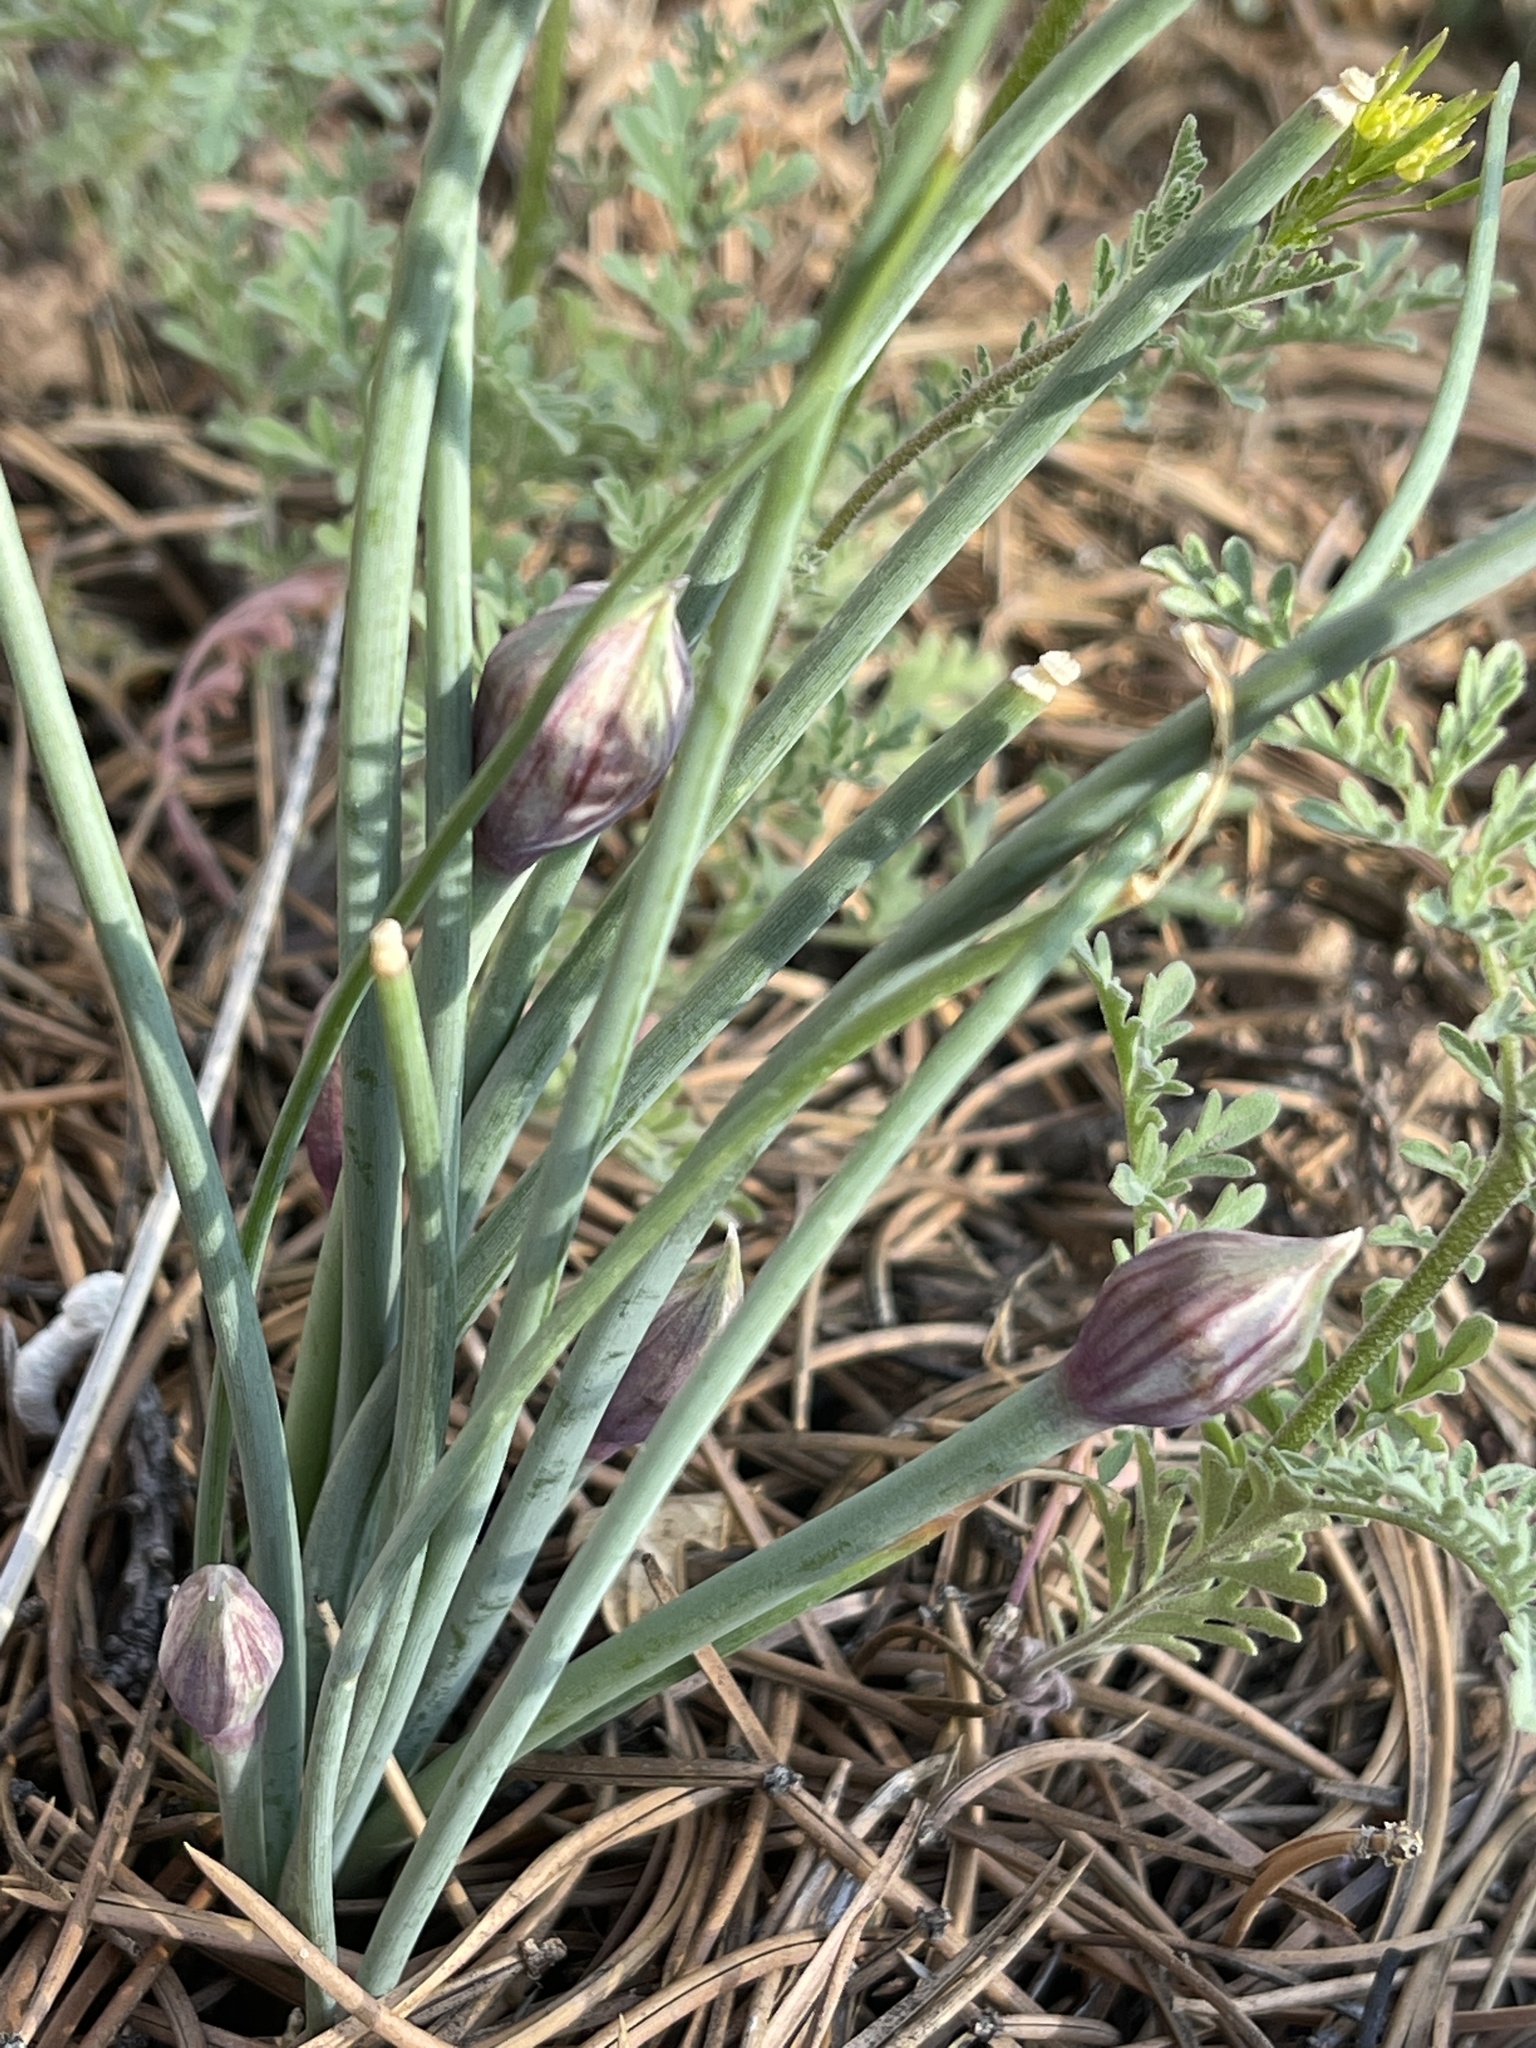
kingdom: Plantae
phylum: Tracheophyta
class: Liliopsida
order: Asparagales
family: Amaryllidaceae
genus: Allium
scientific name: Allium macropetalum
